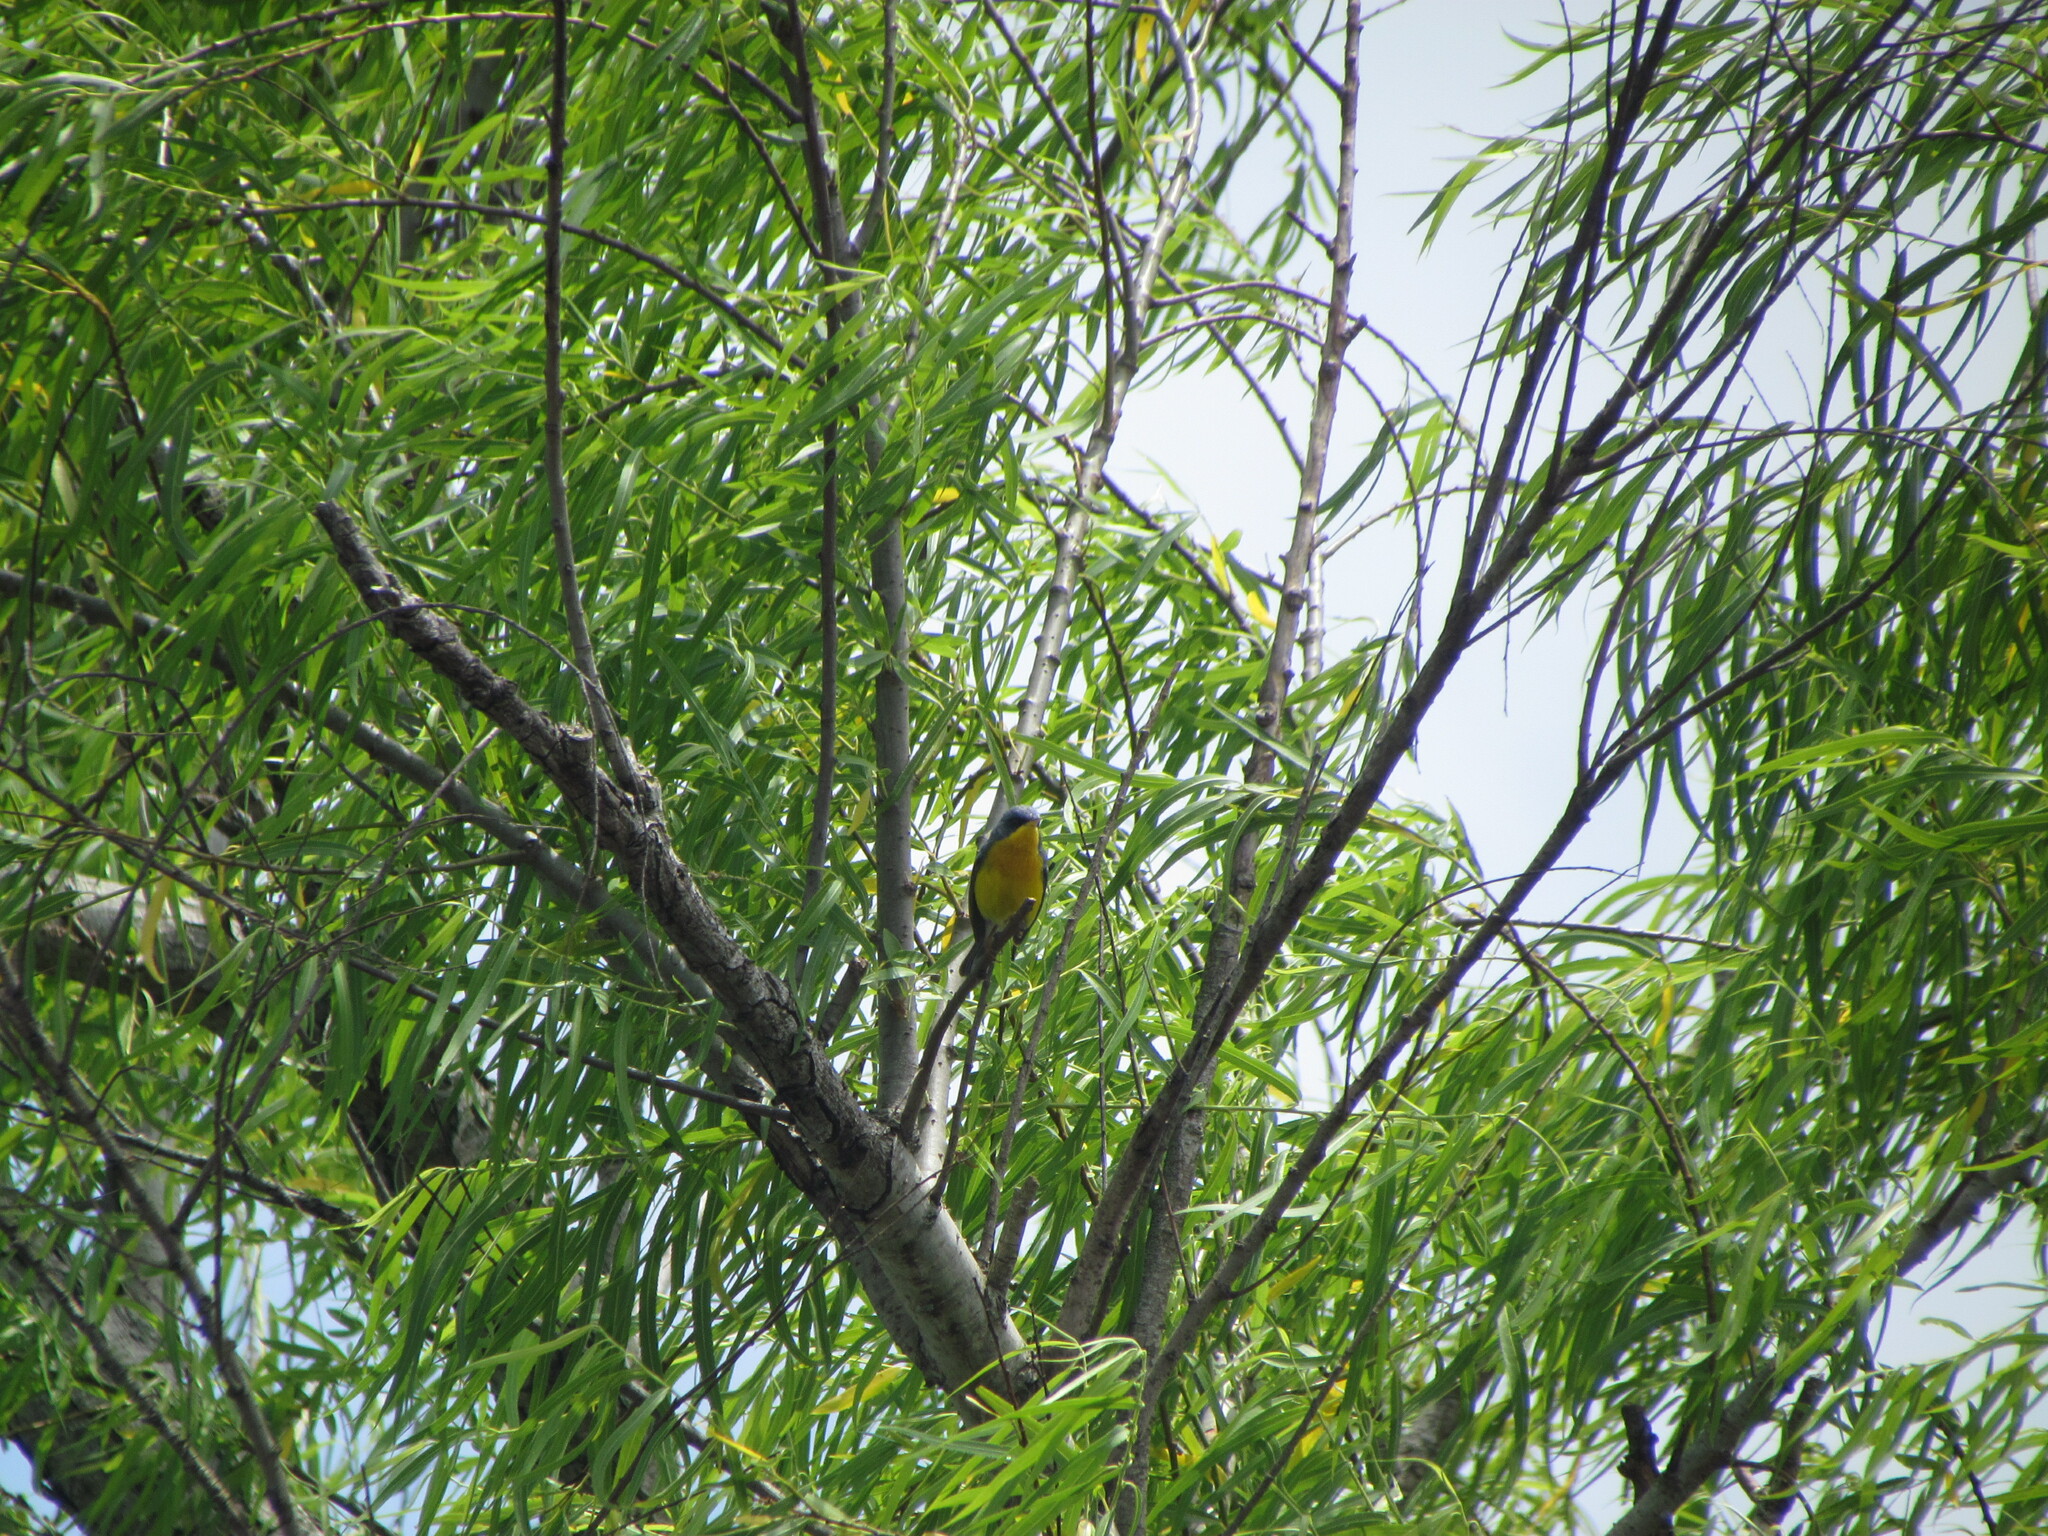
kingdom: Animalia
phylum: Chordata
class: Aves
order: Passeriformes
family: Parulidae
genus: Setophaga
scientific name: Setophaga pitiayumi
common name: Tropical parula
